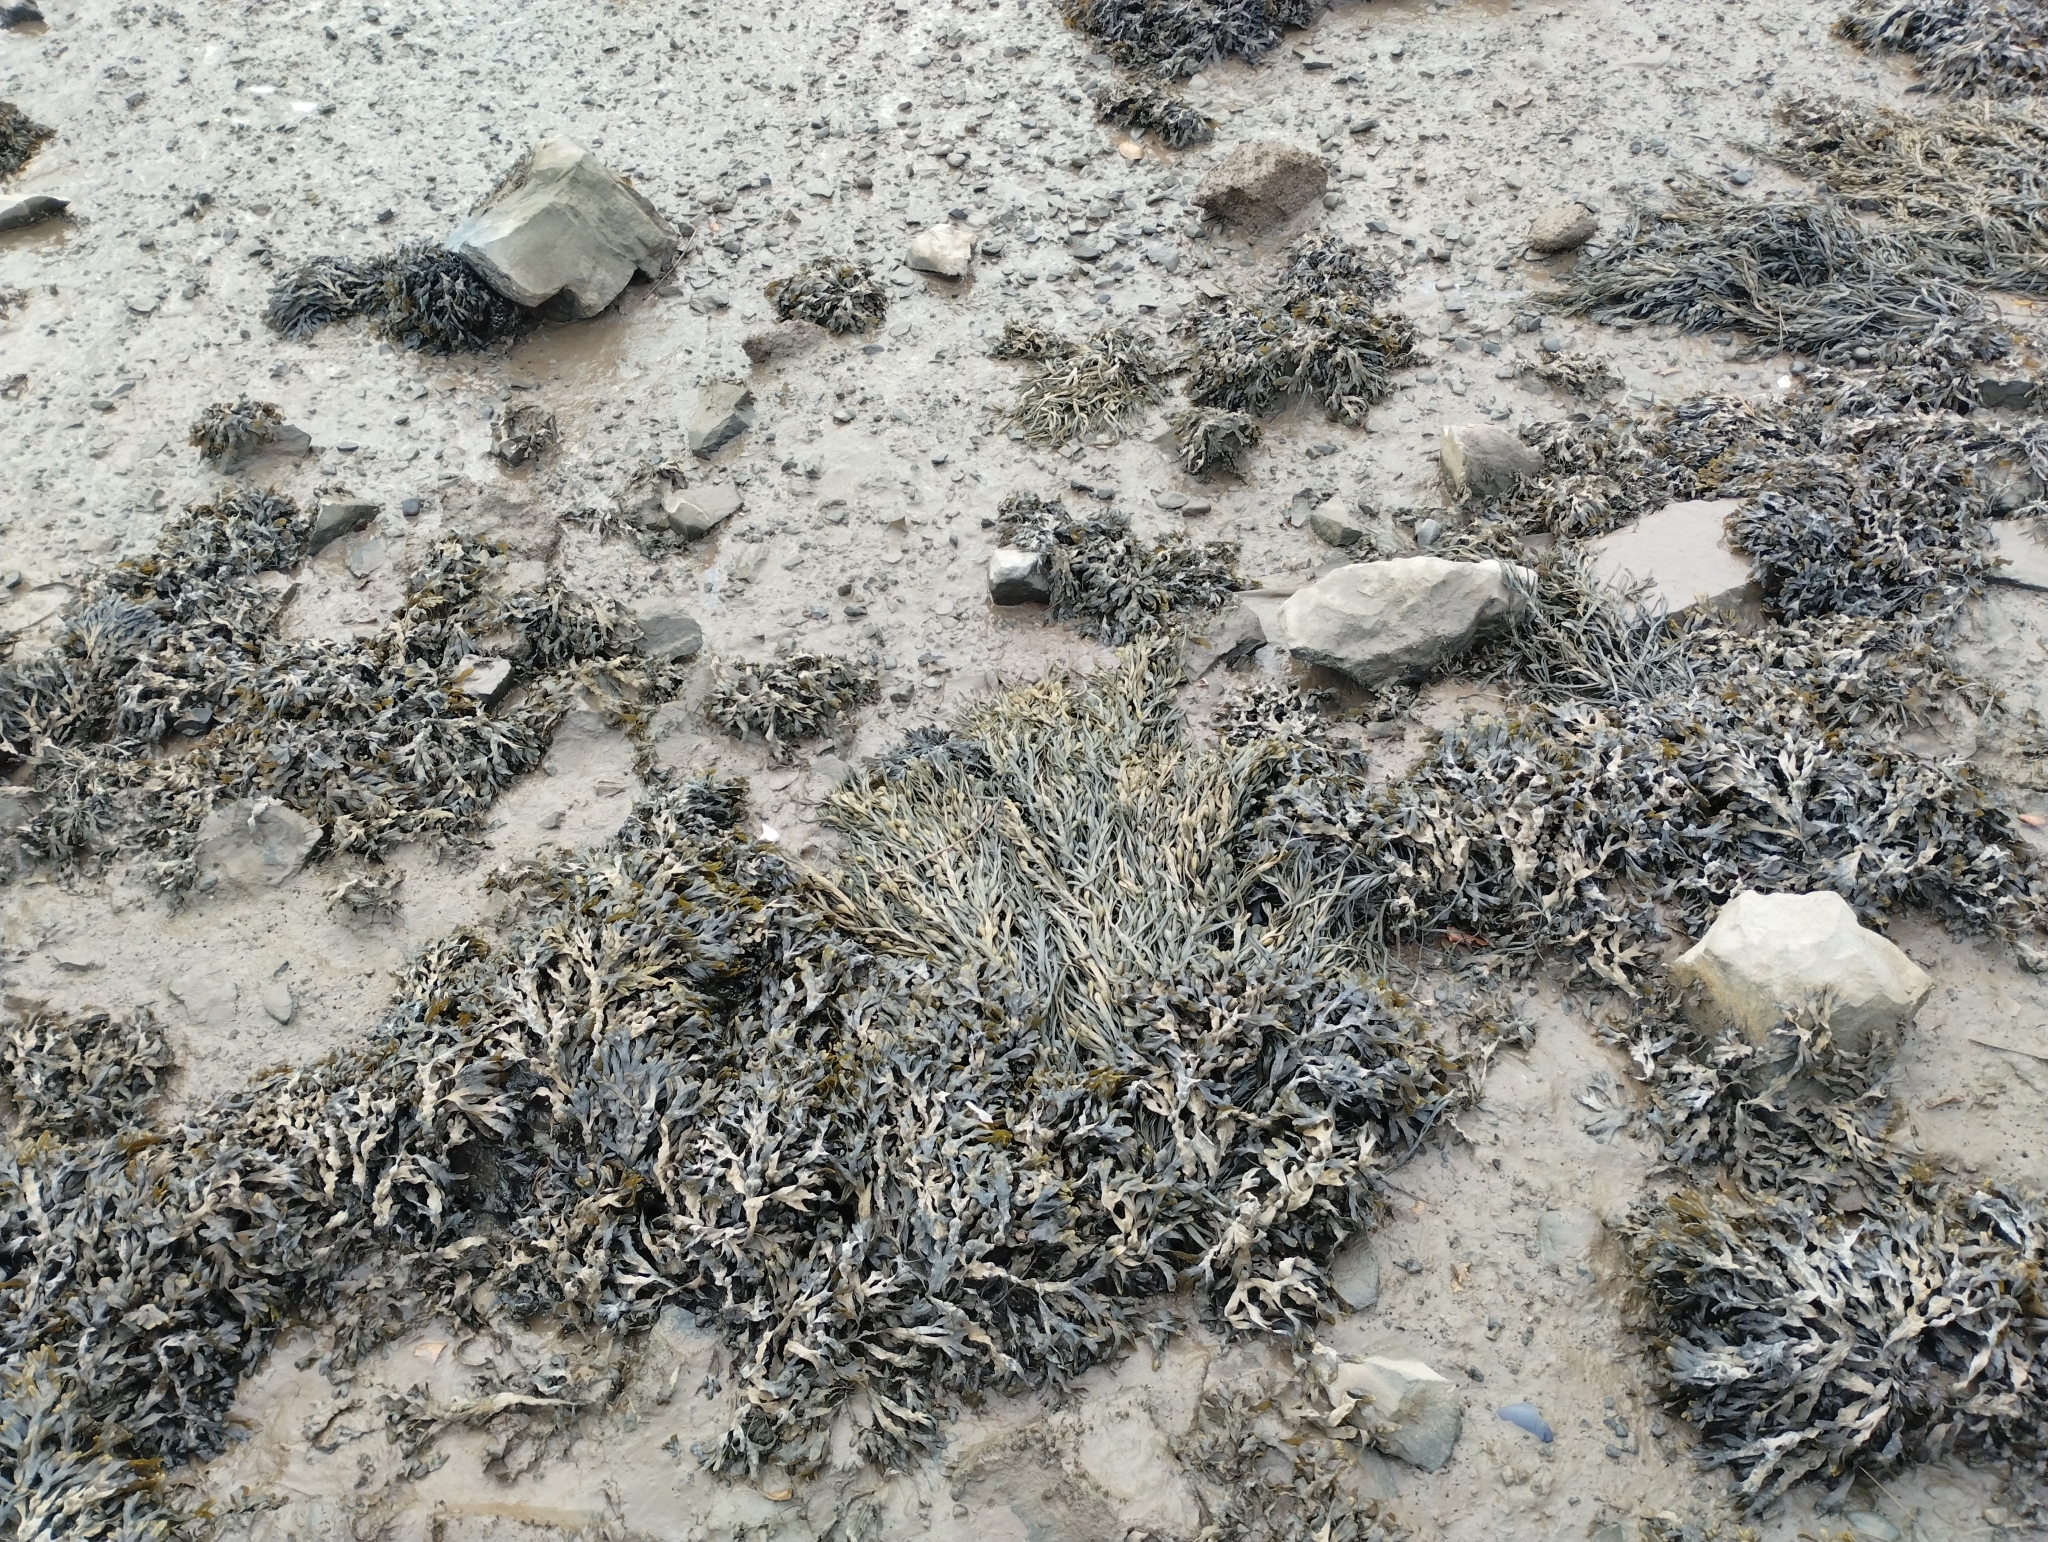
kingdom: Chromista
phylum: Ochrophyta
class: Phaeophyceae
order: Fucales
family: Fucaceae
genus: Ascophyllum
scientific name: Ascophyllum nodosum
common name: Knotted wrack
